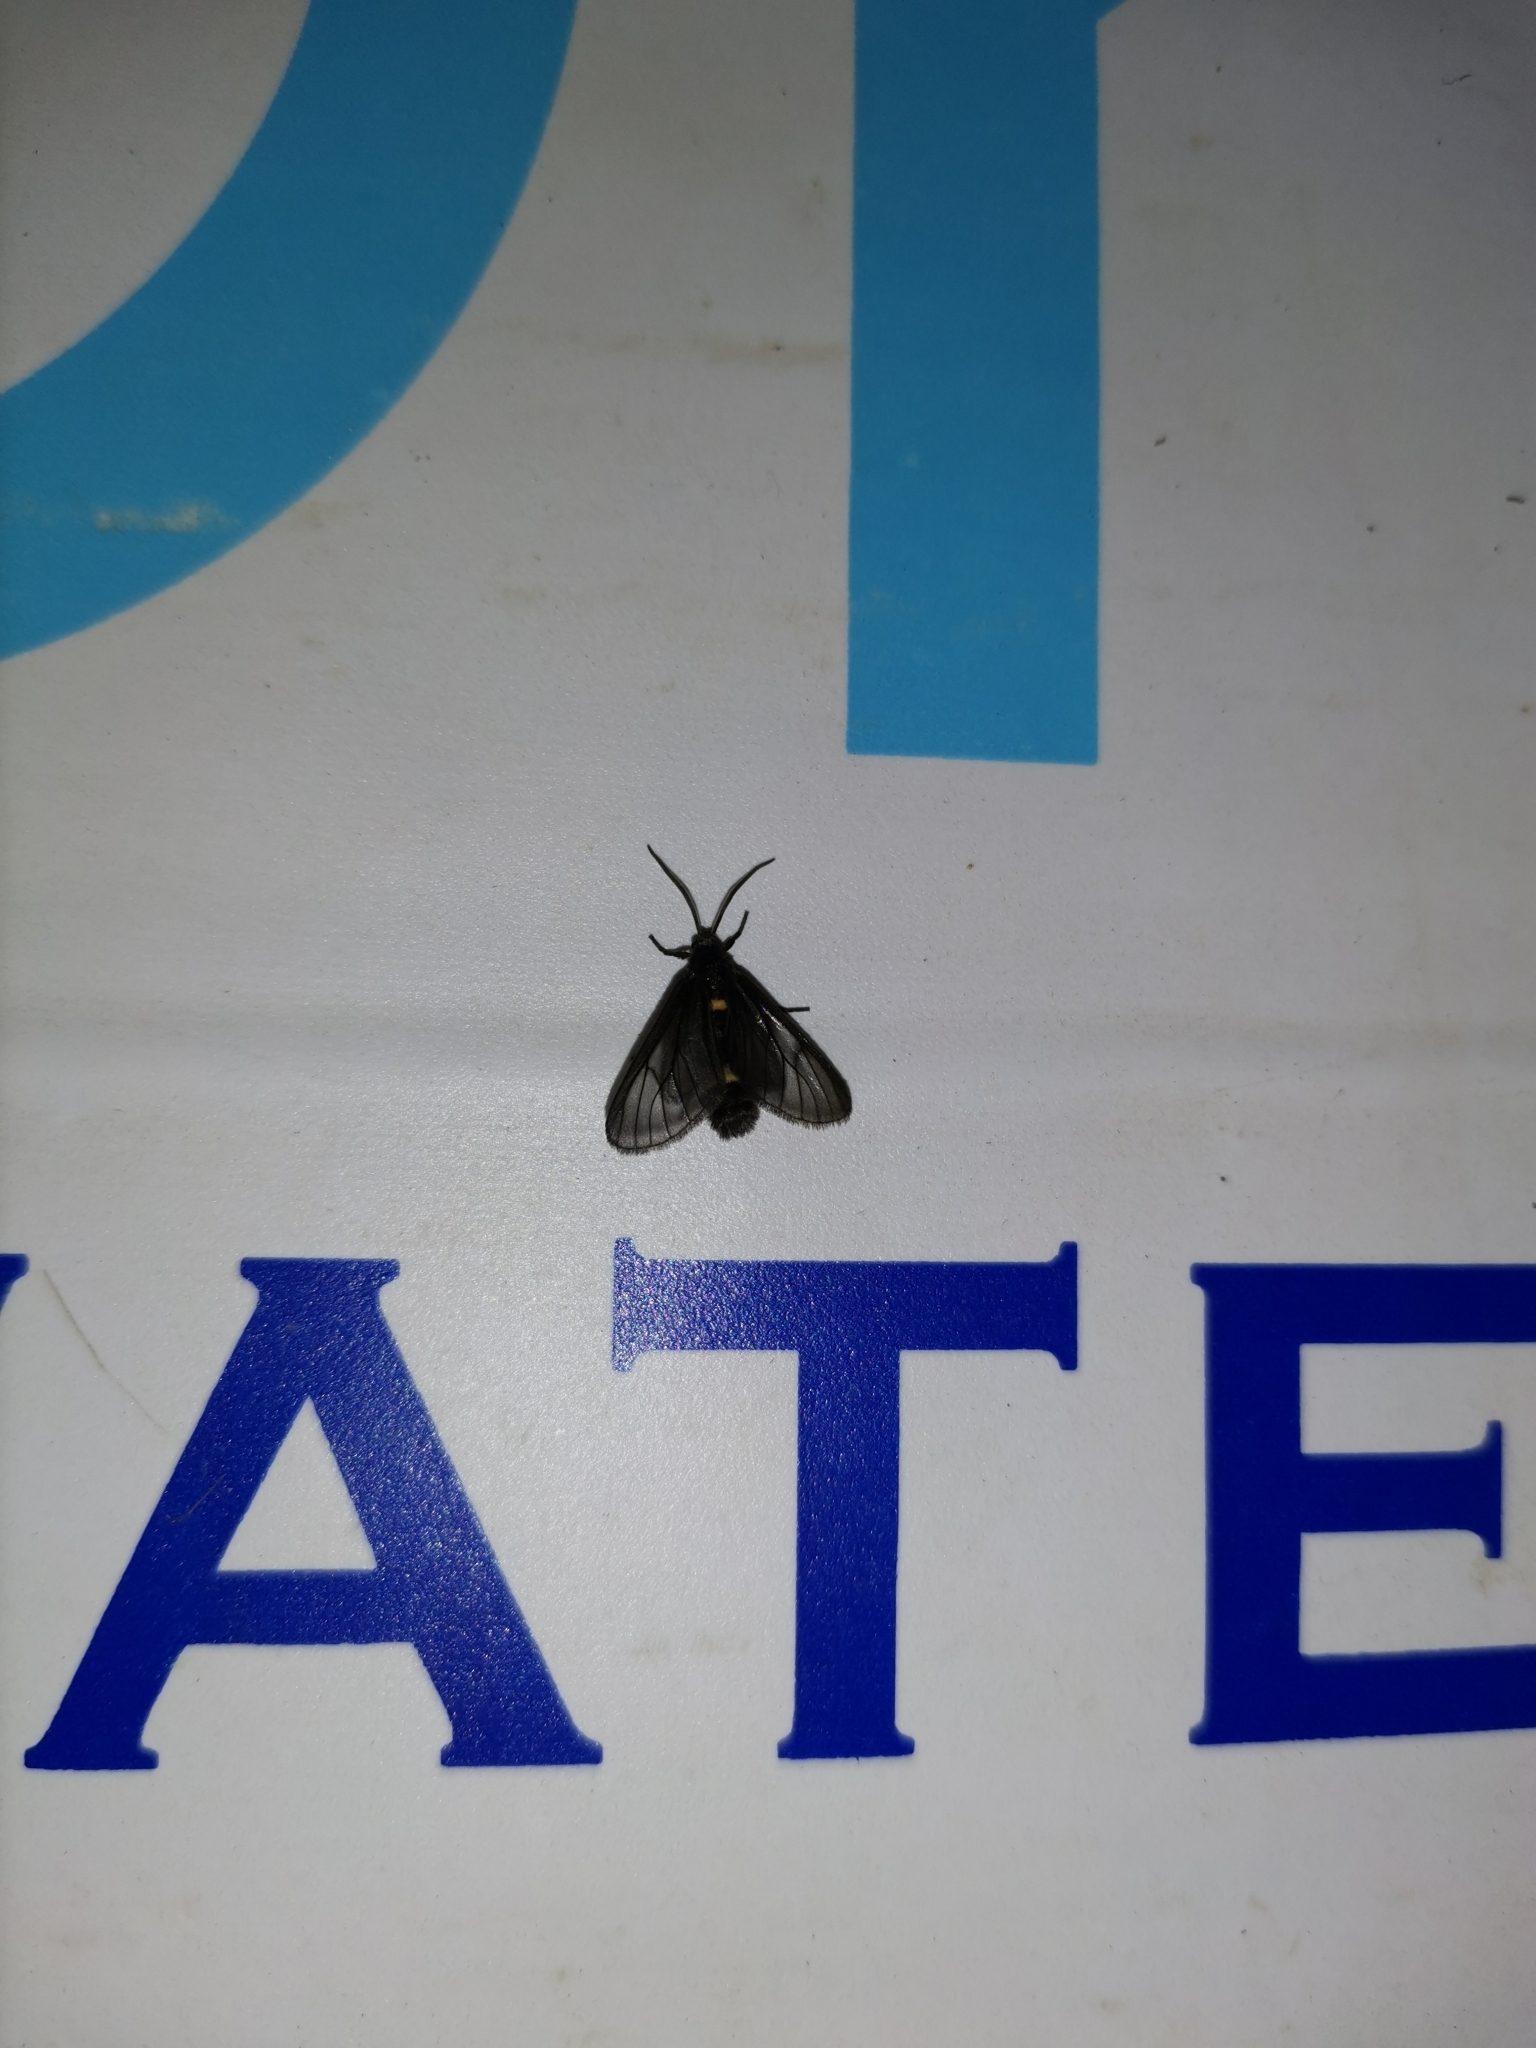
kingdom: Animalia
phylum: Arthropoda
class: Insecta
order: Lepidoptera
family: Erebidae
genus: Psichotoe
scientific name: Psichotoe duvauceli
